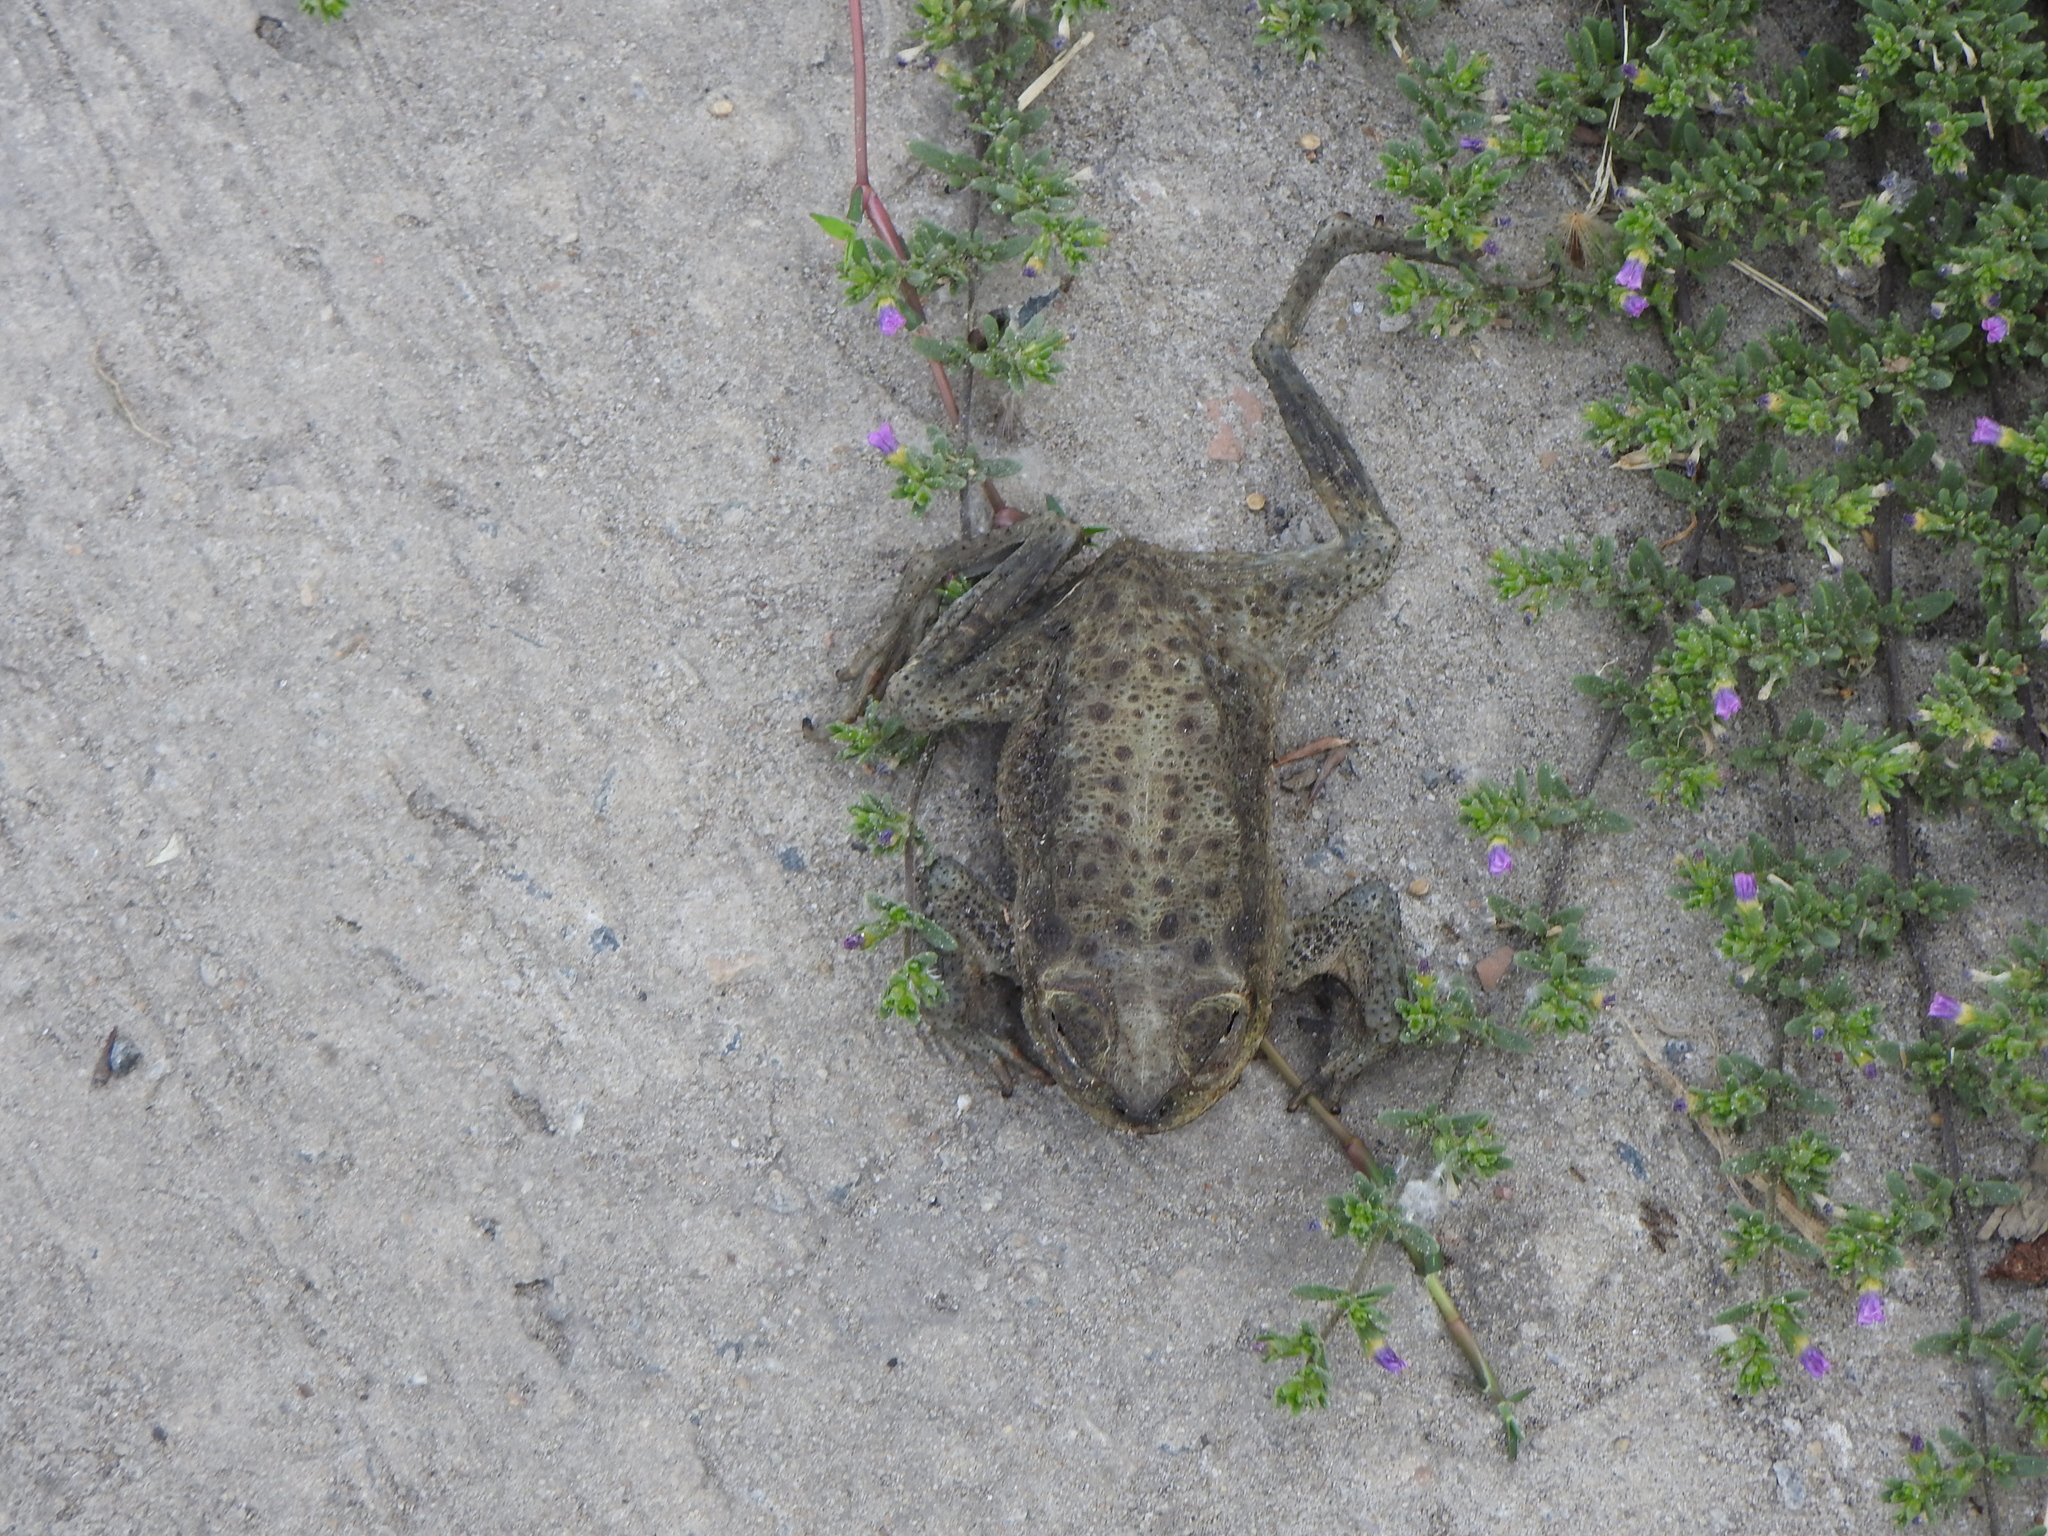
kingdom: Animalia
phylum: Chordata
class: Amphibia
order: Anura
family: Bufonidae
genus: Rhinella
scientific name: Rhinella arenarum
